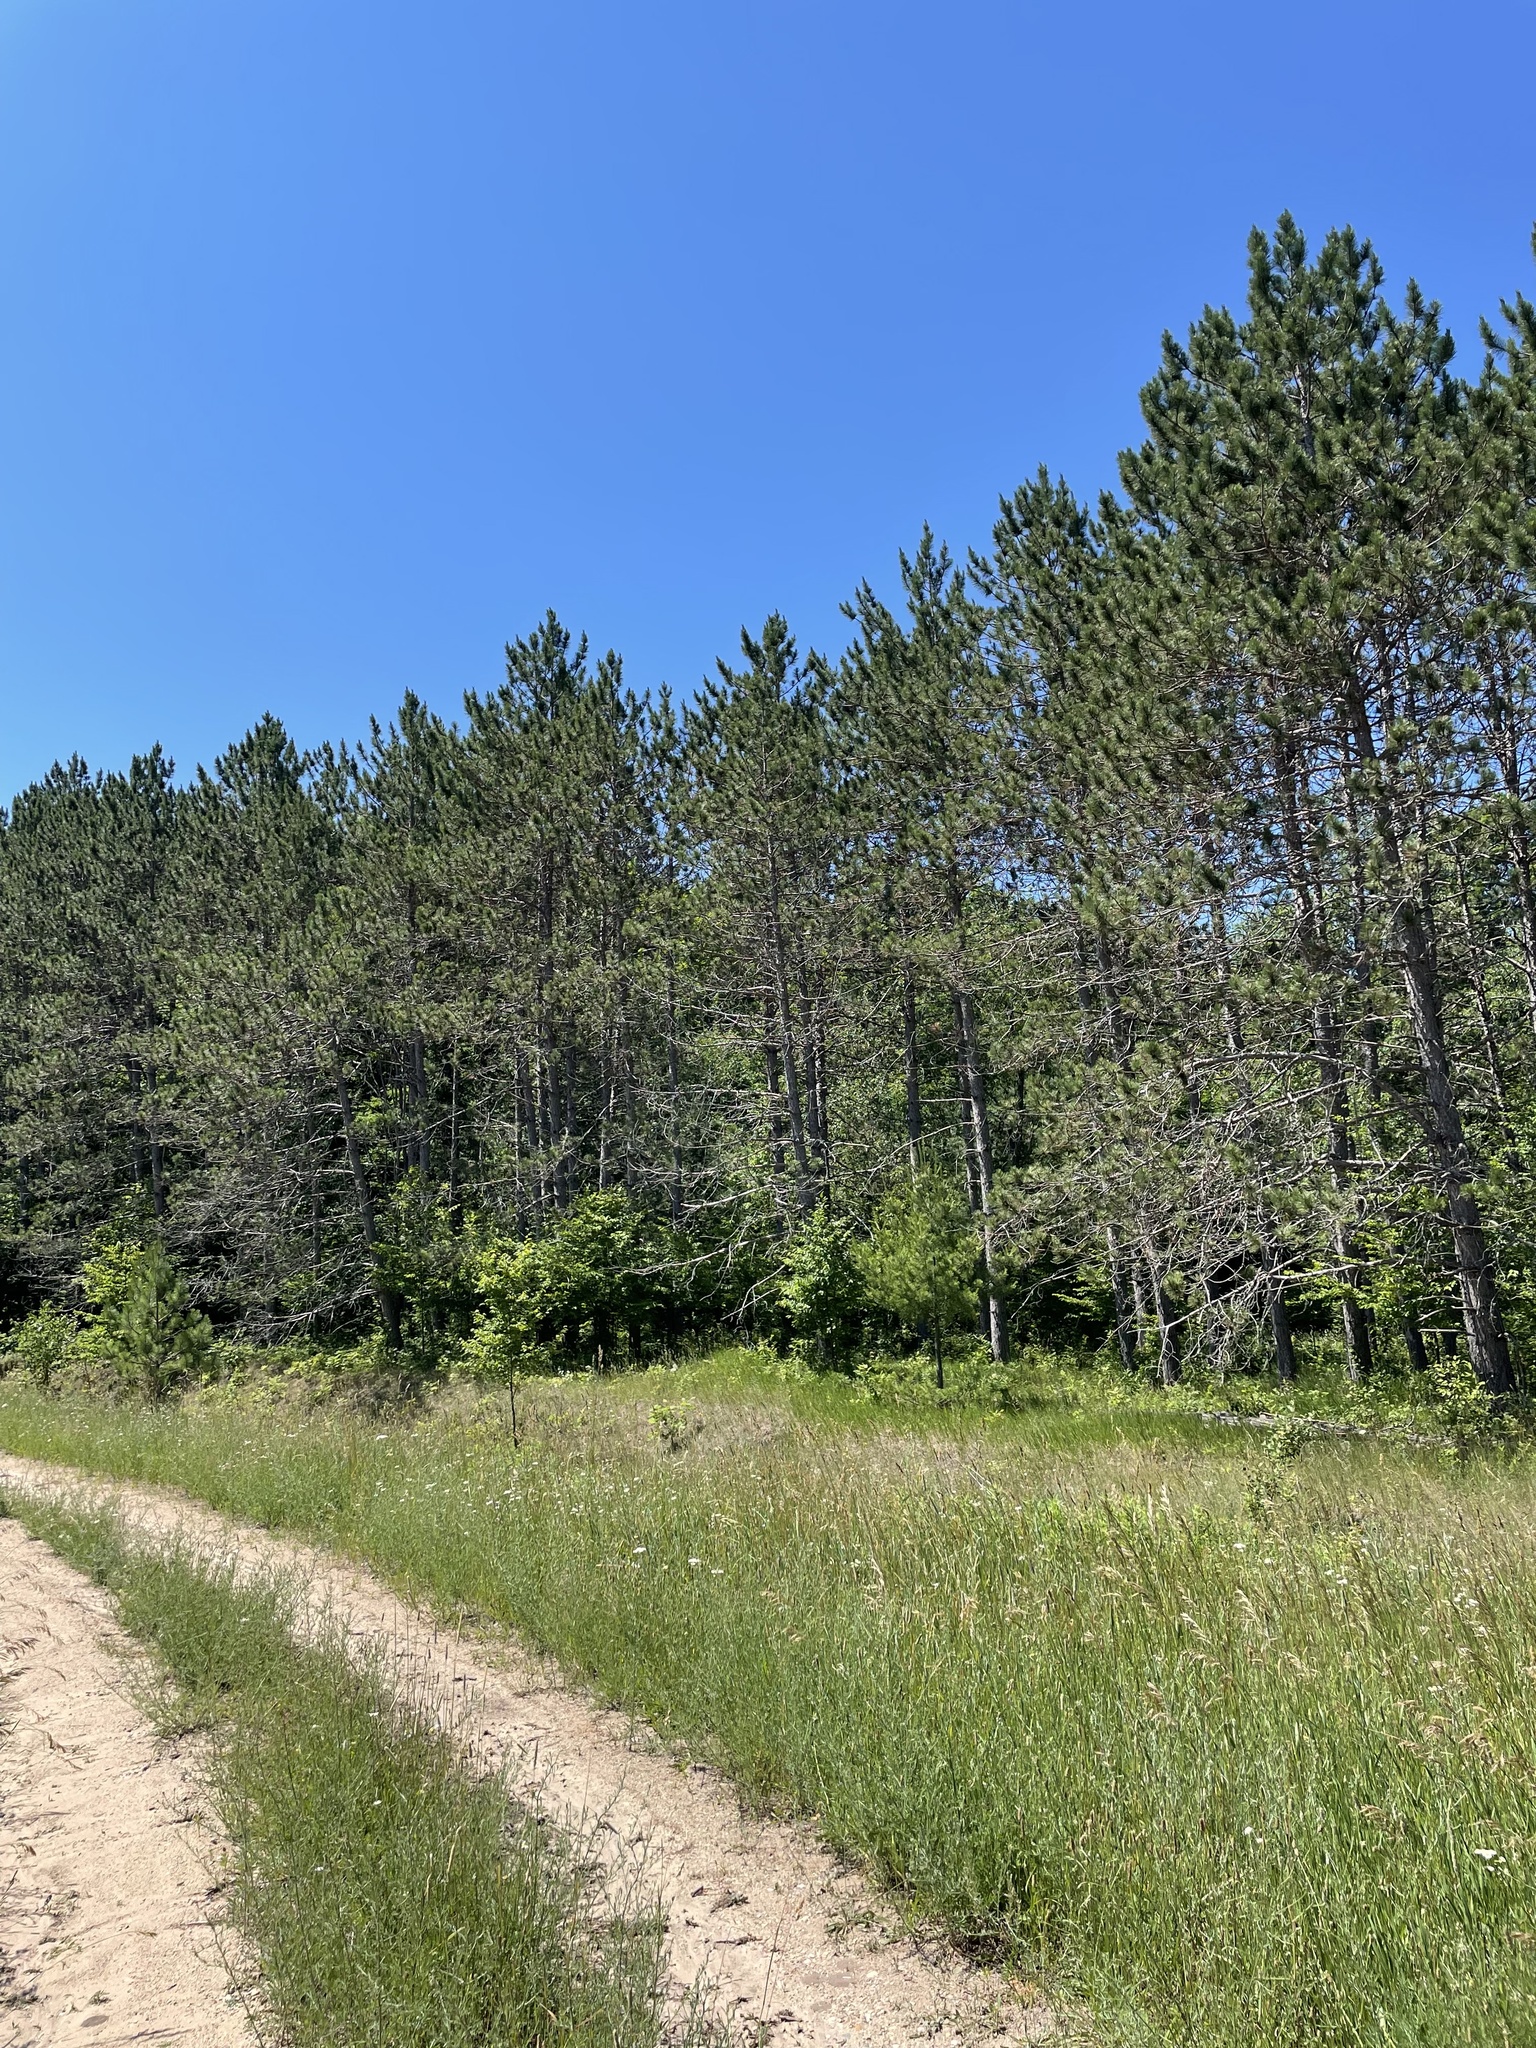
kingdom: Plantae
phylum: Tracheophyta
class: Pinopsida
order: Pinales
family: Pinaceae
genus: Pinus
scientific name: Pinus resinosa
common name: Norway pine
